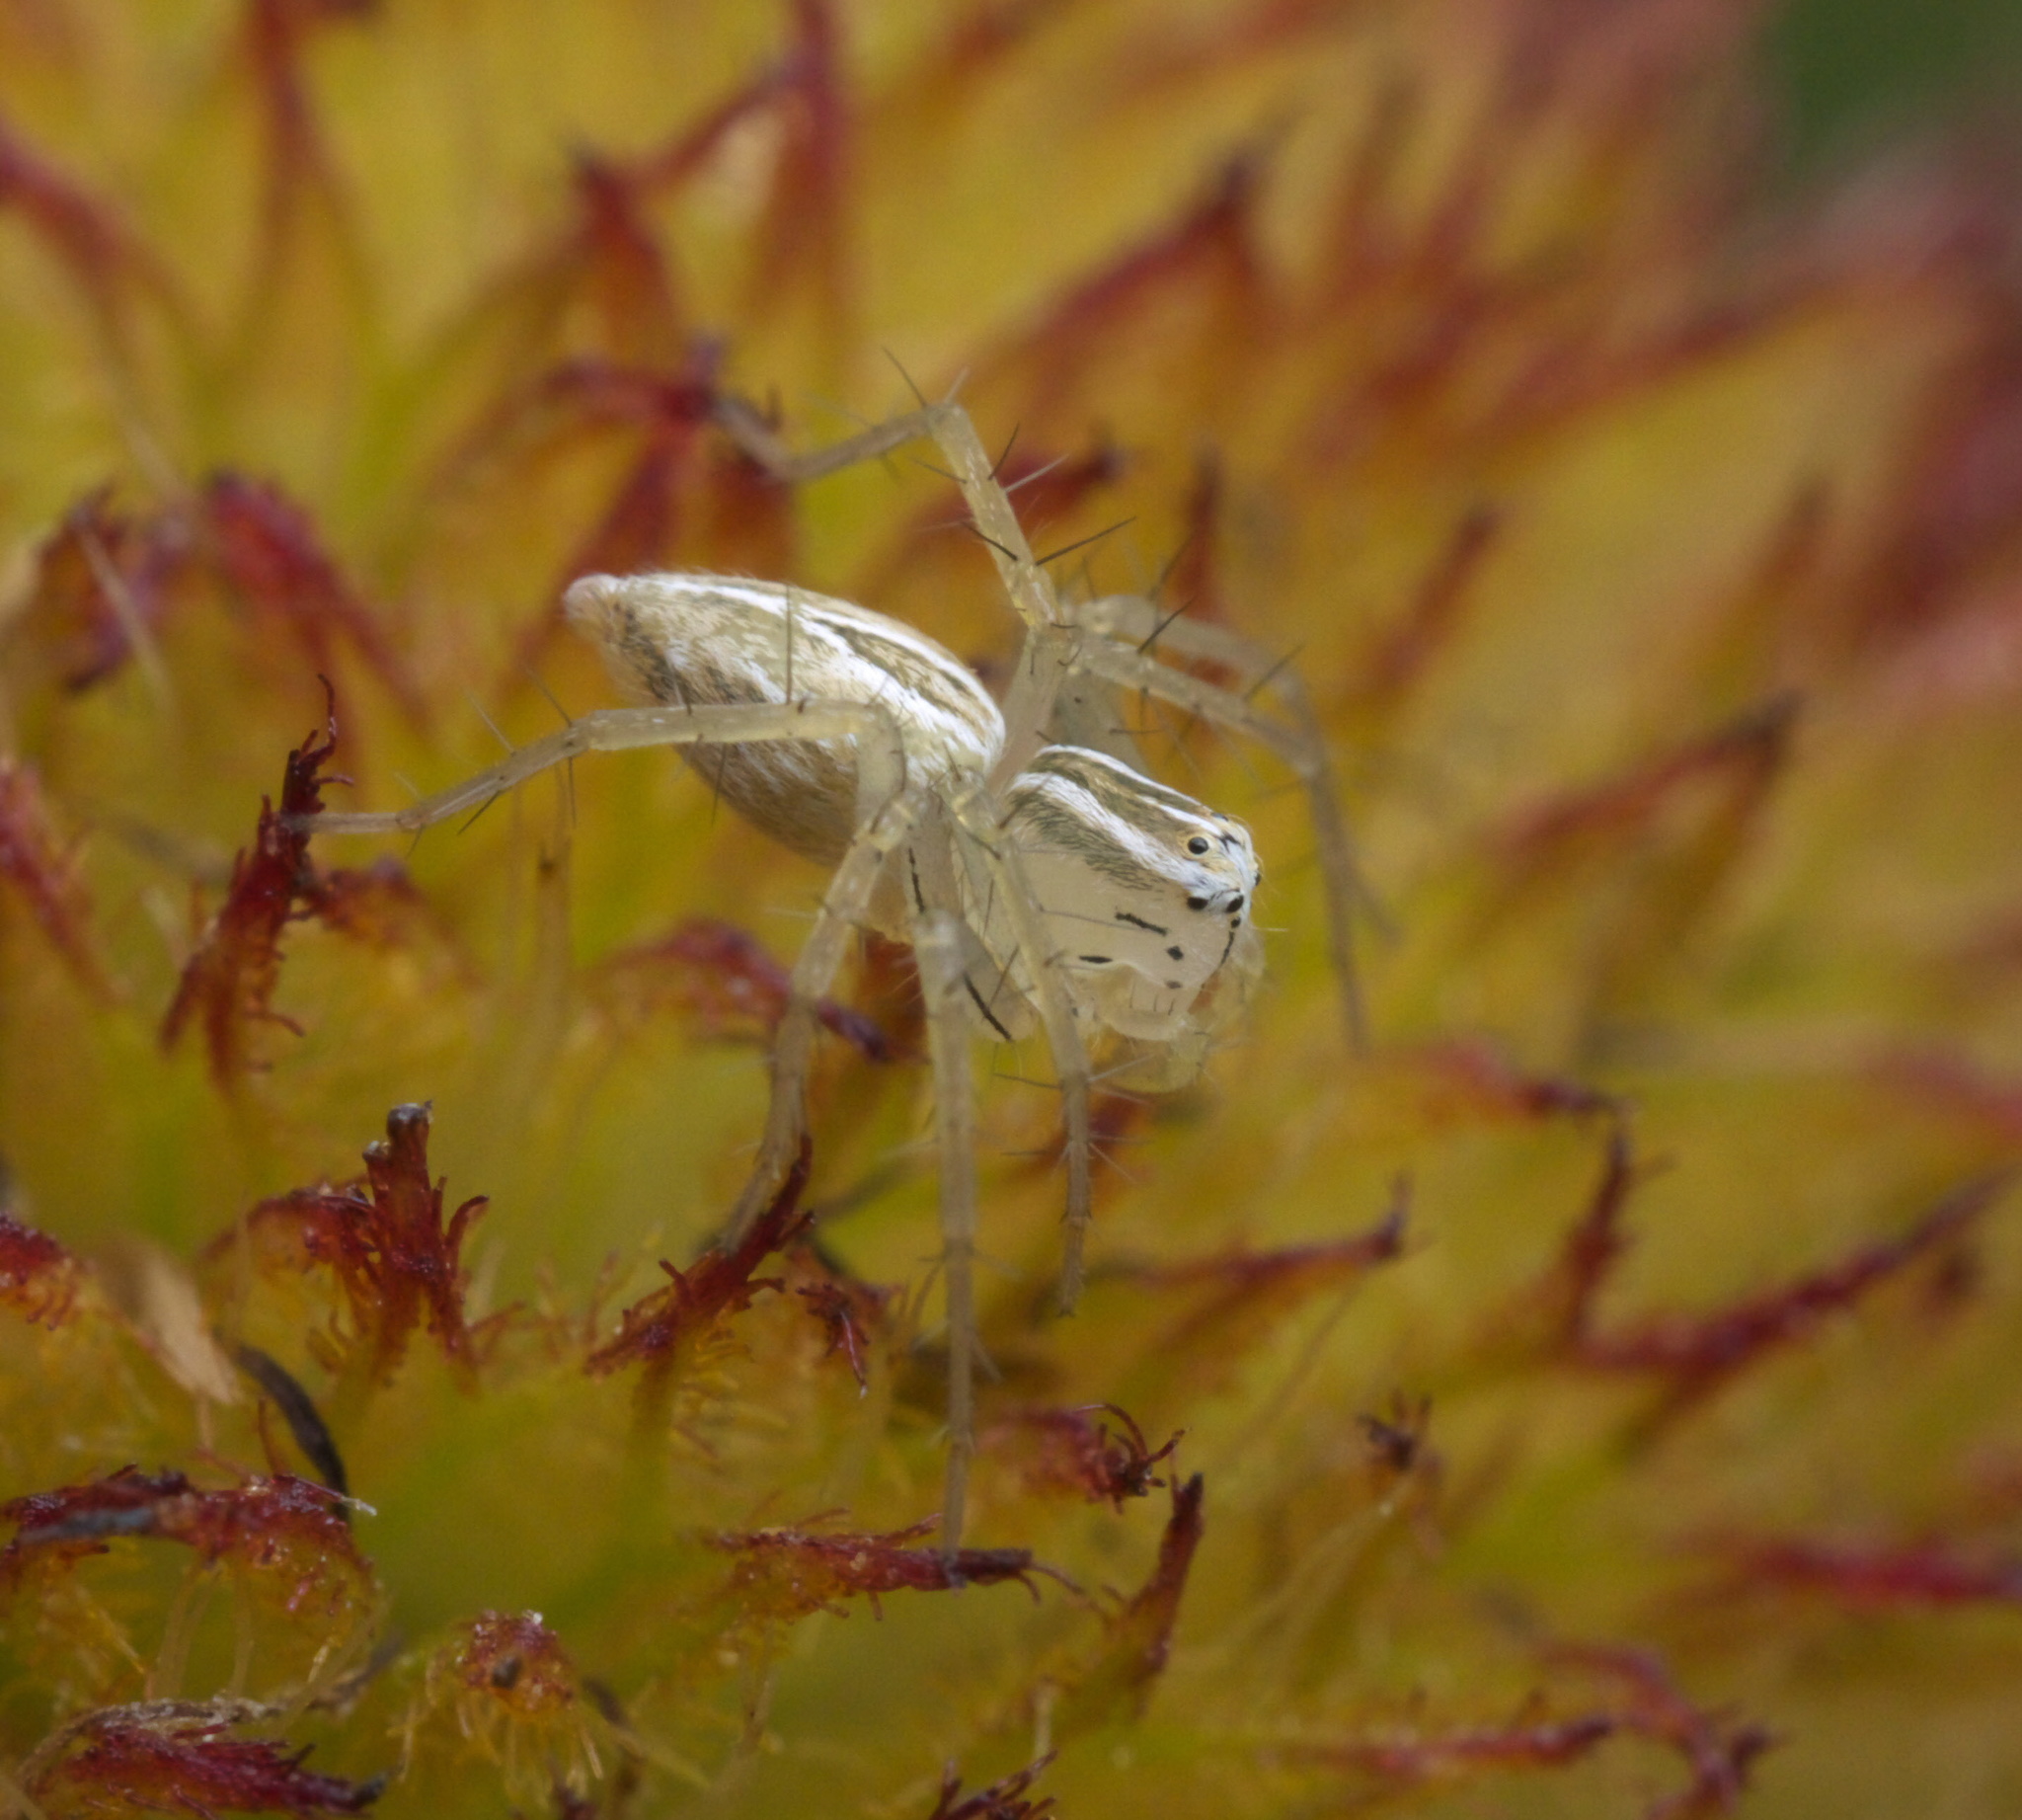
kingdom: Animalia
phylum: Arthropoda
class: Arachnida
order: Araneae
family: Oxyopidae
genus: Oxyopes
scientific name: Oxyopes salticus
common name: Lynx spiders
